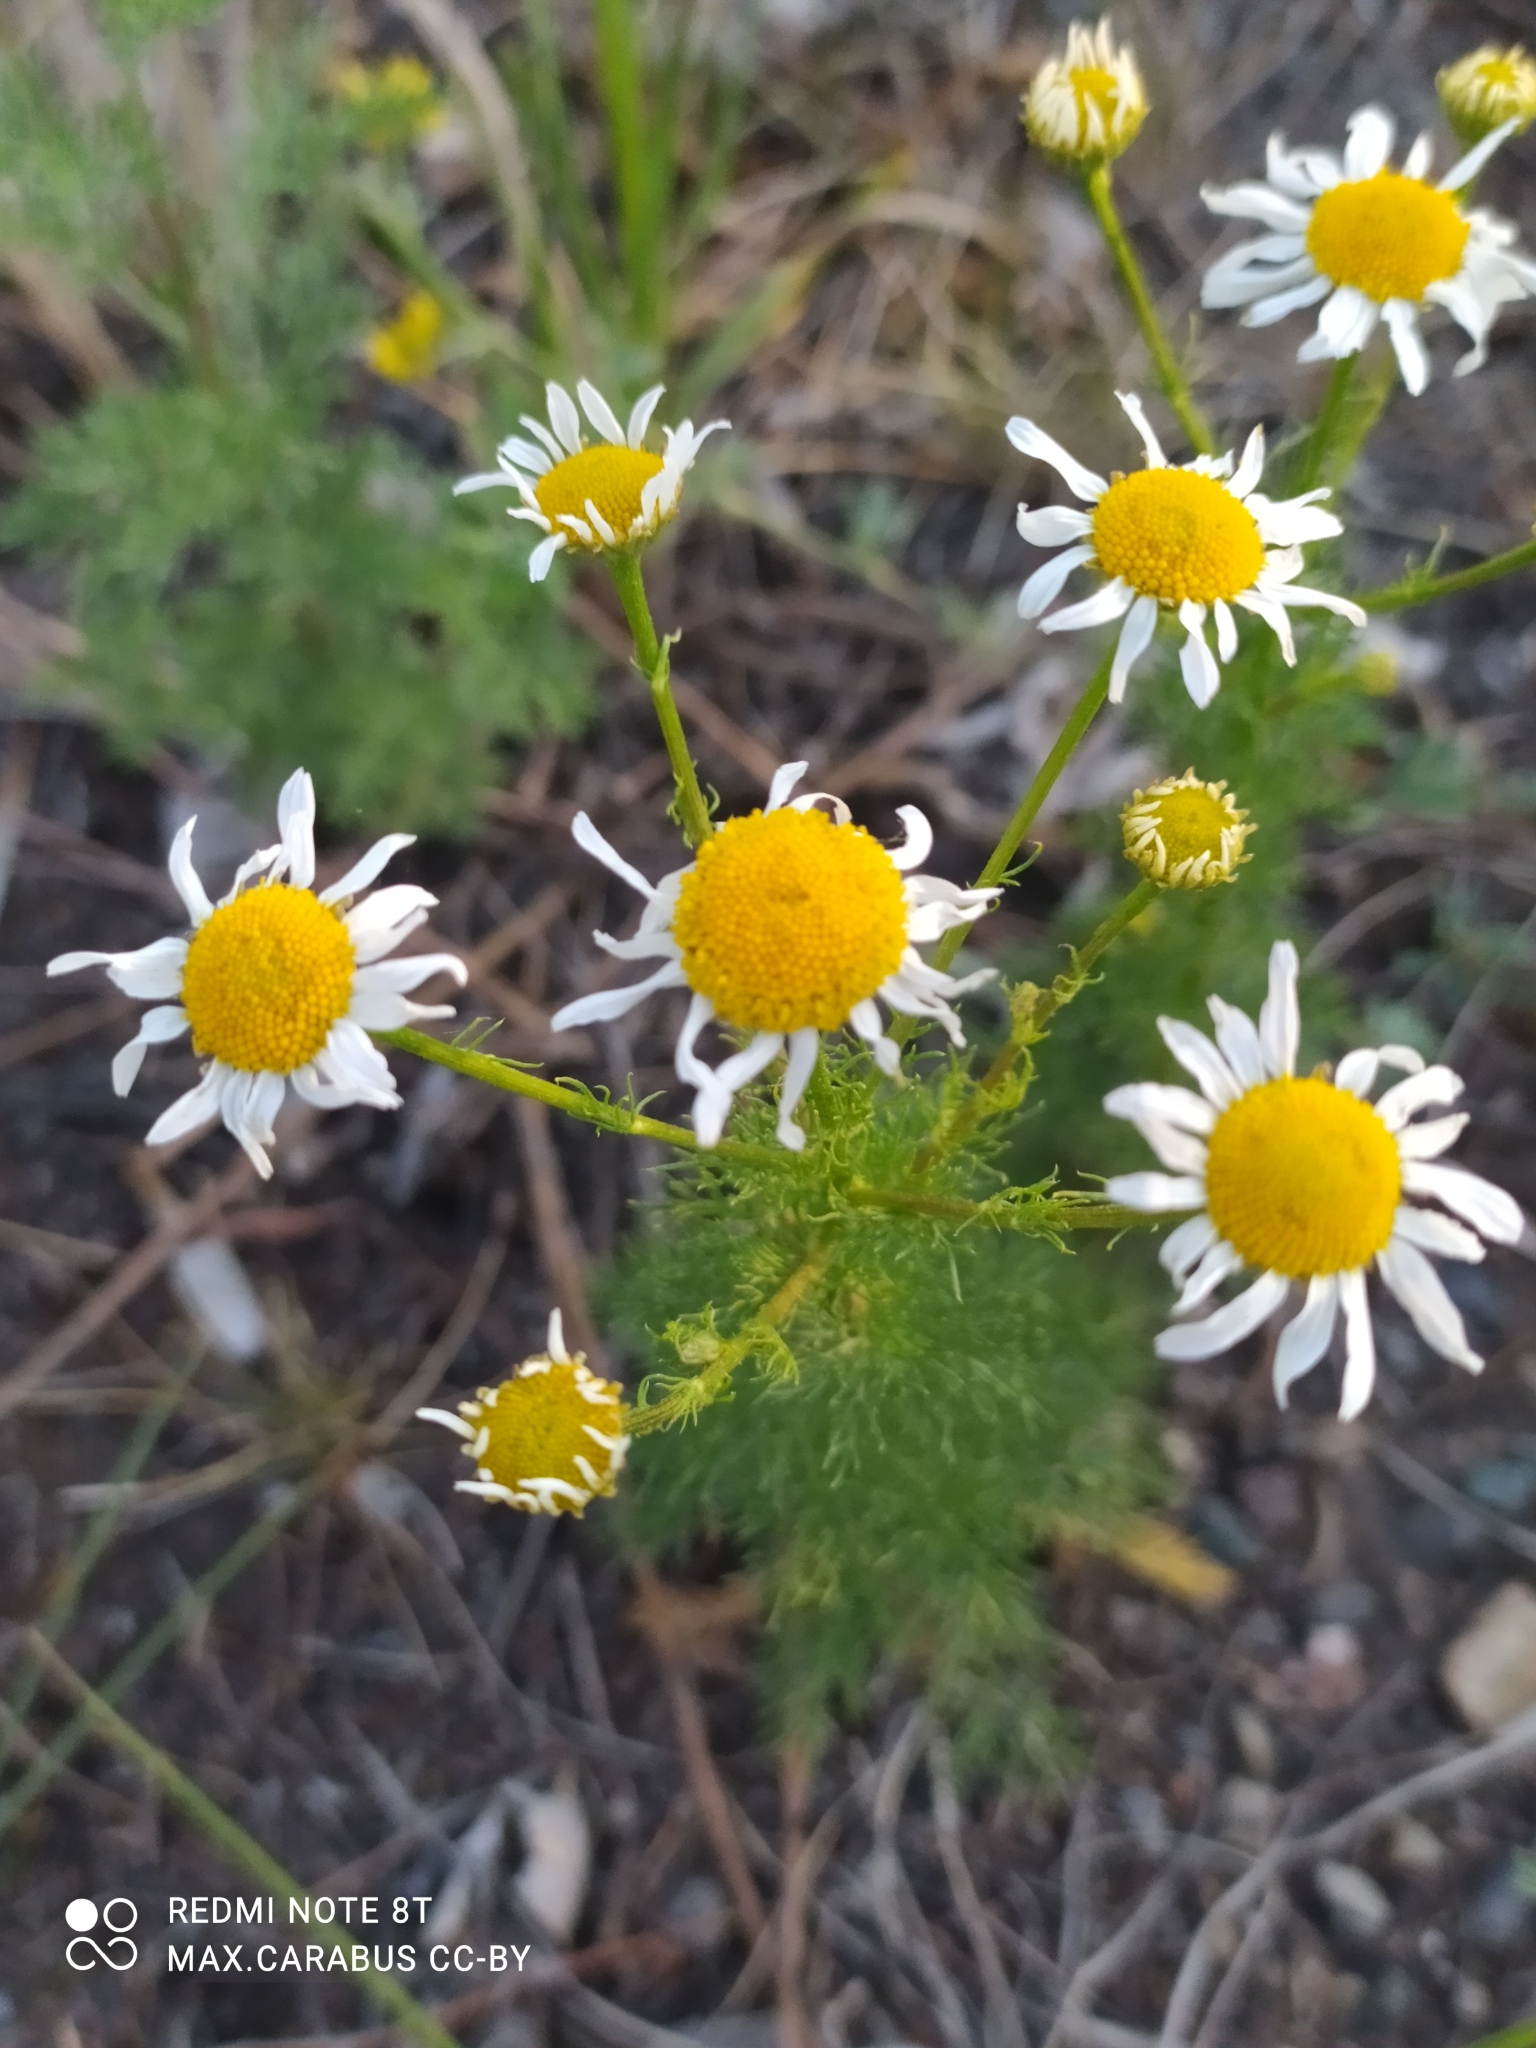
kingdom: Plantae
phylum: Tracheophyta
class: Magnoliopsida
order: Asterales
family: Asteraceae
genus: Tripleurospermum
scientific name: Tripleurospermum inodorum
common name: Scentless mayweed
